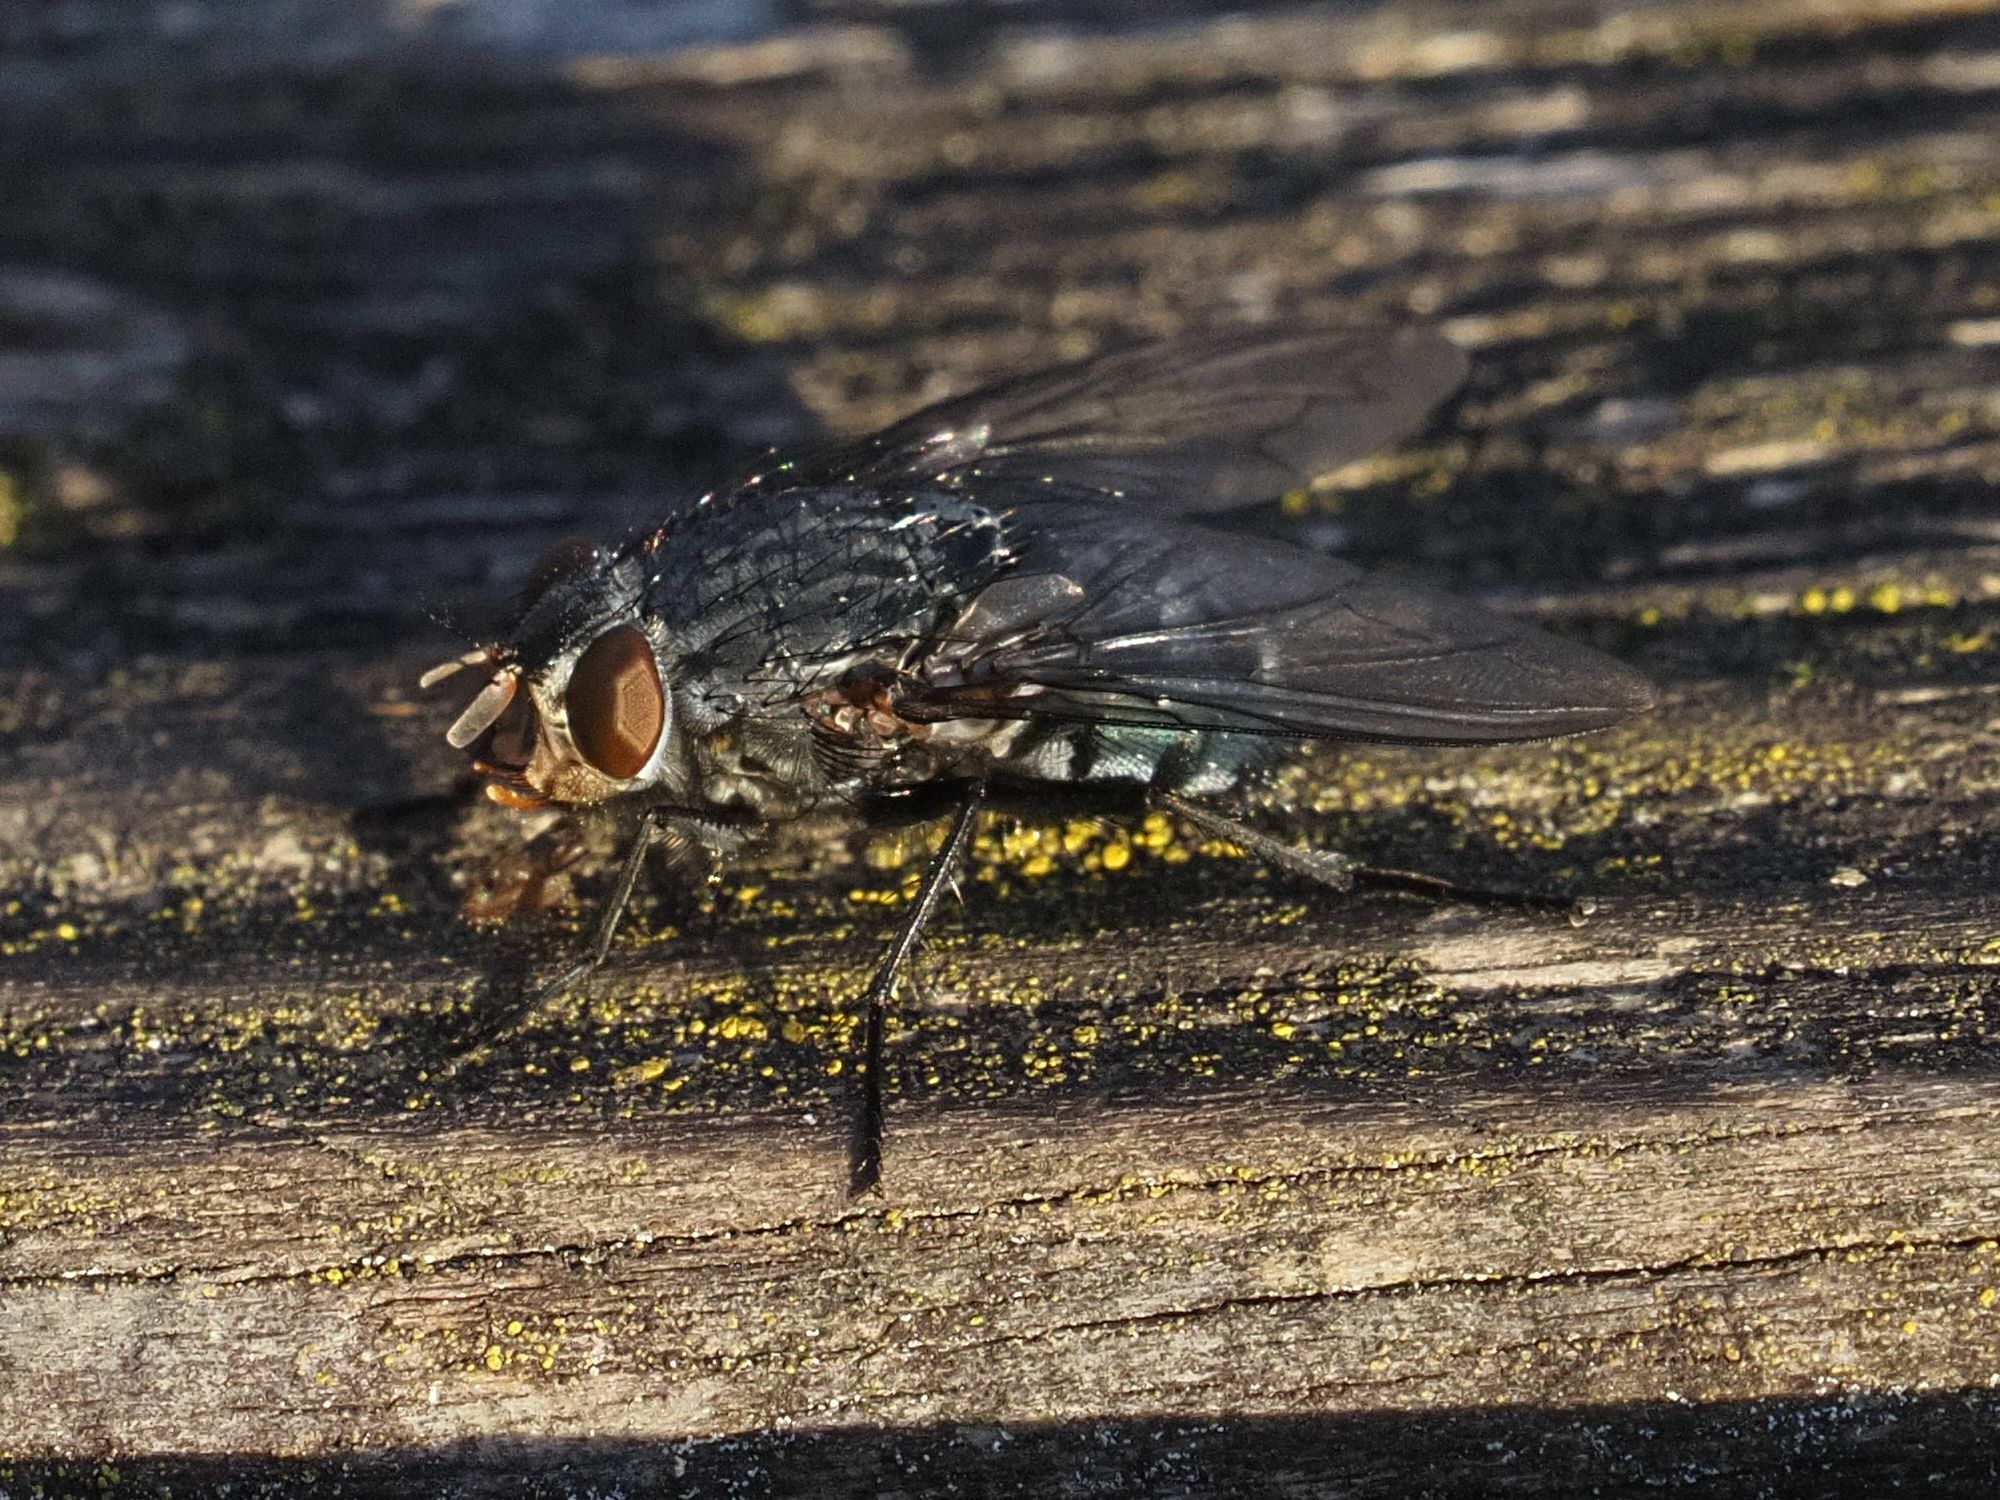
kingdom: Animalia
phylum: Arthropoda
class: Insecta
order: Diptera
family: Calliphoridae
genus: Calliphora
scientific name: Calliphora vicina
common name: Common blow flie
